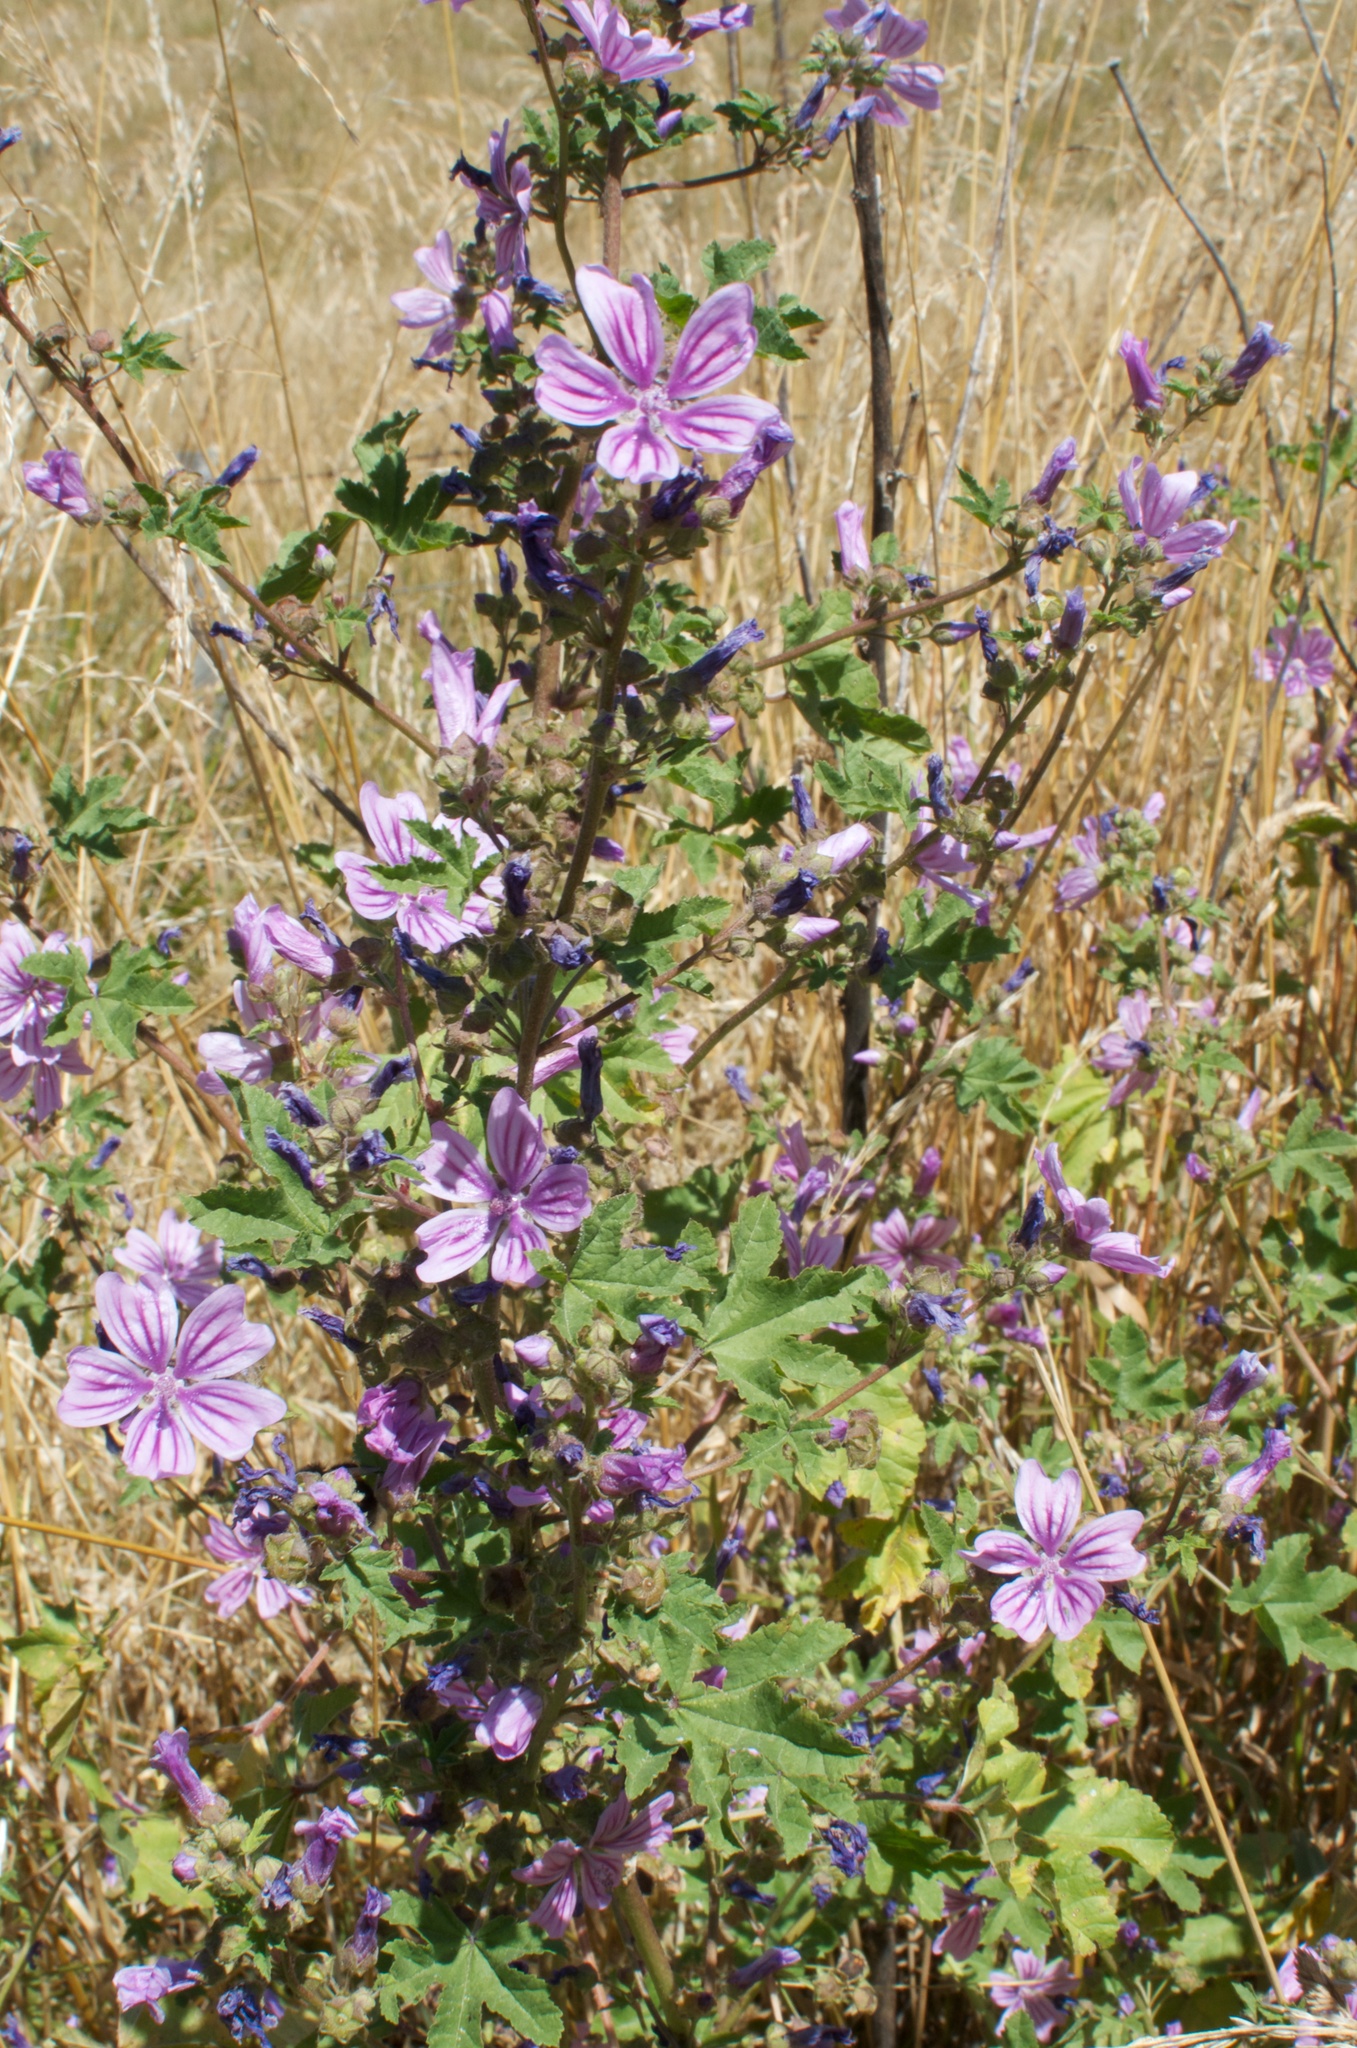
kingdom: Plantae
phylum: Tracheophyta
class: Magnoliopsida
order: Malvales
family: Malvaceae
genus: Malva
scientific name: Malva sylvestris
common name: Common mallow
